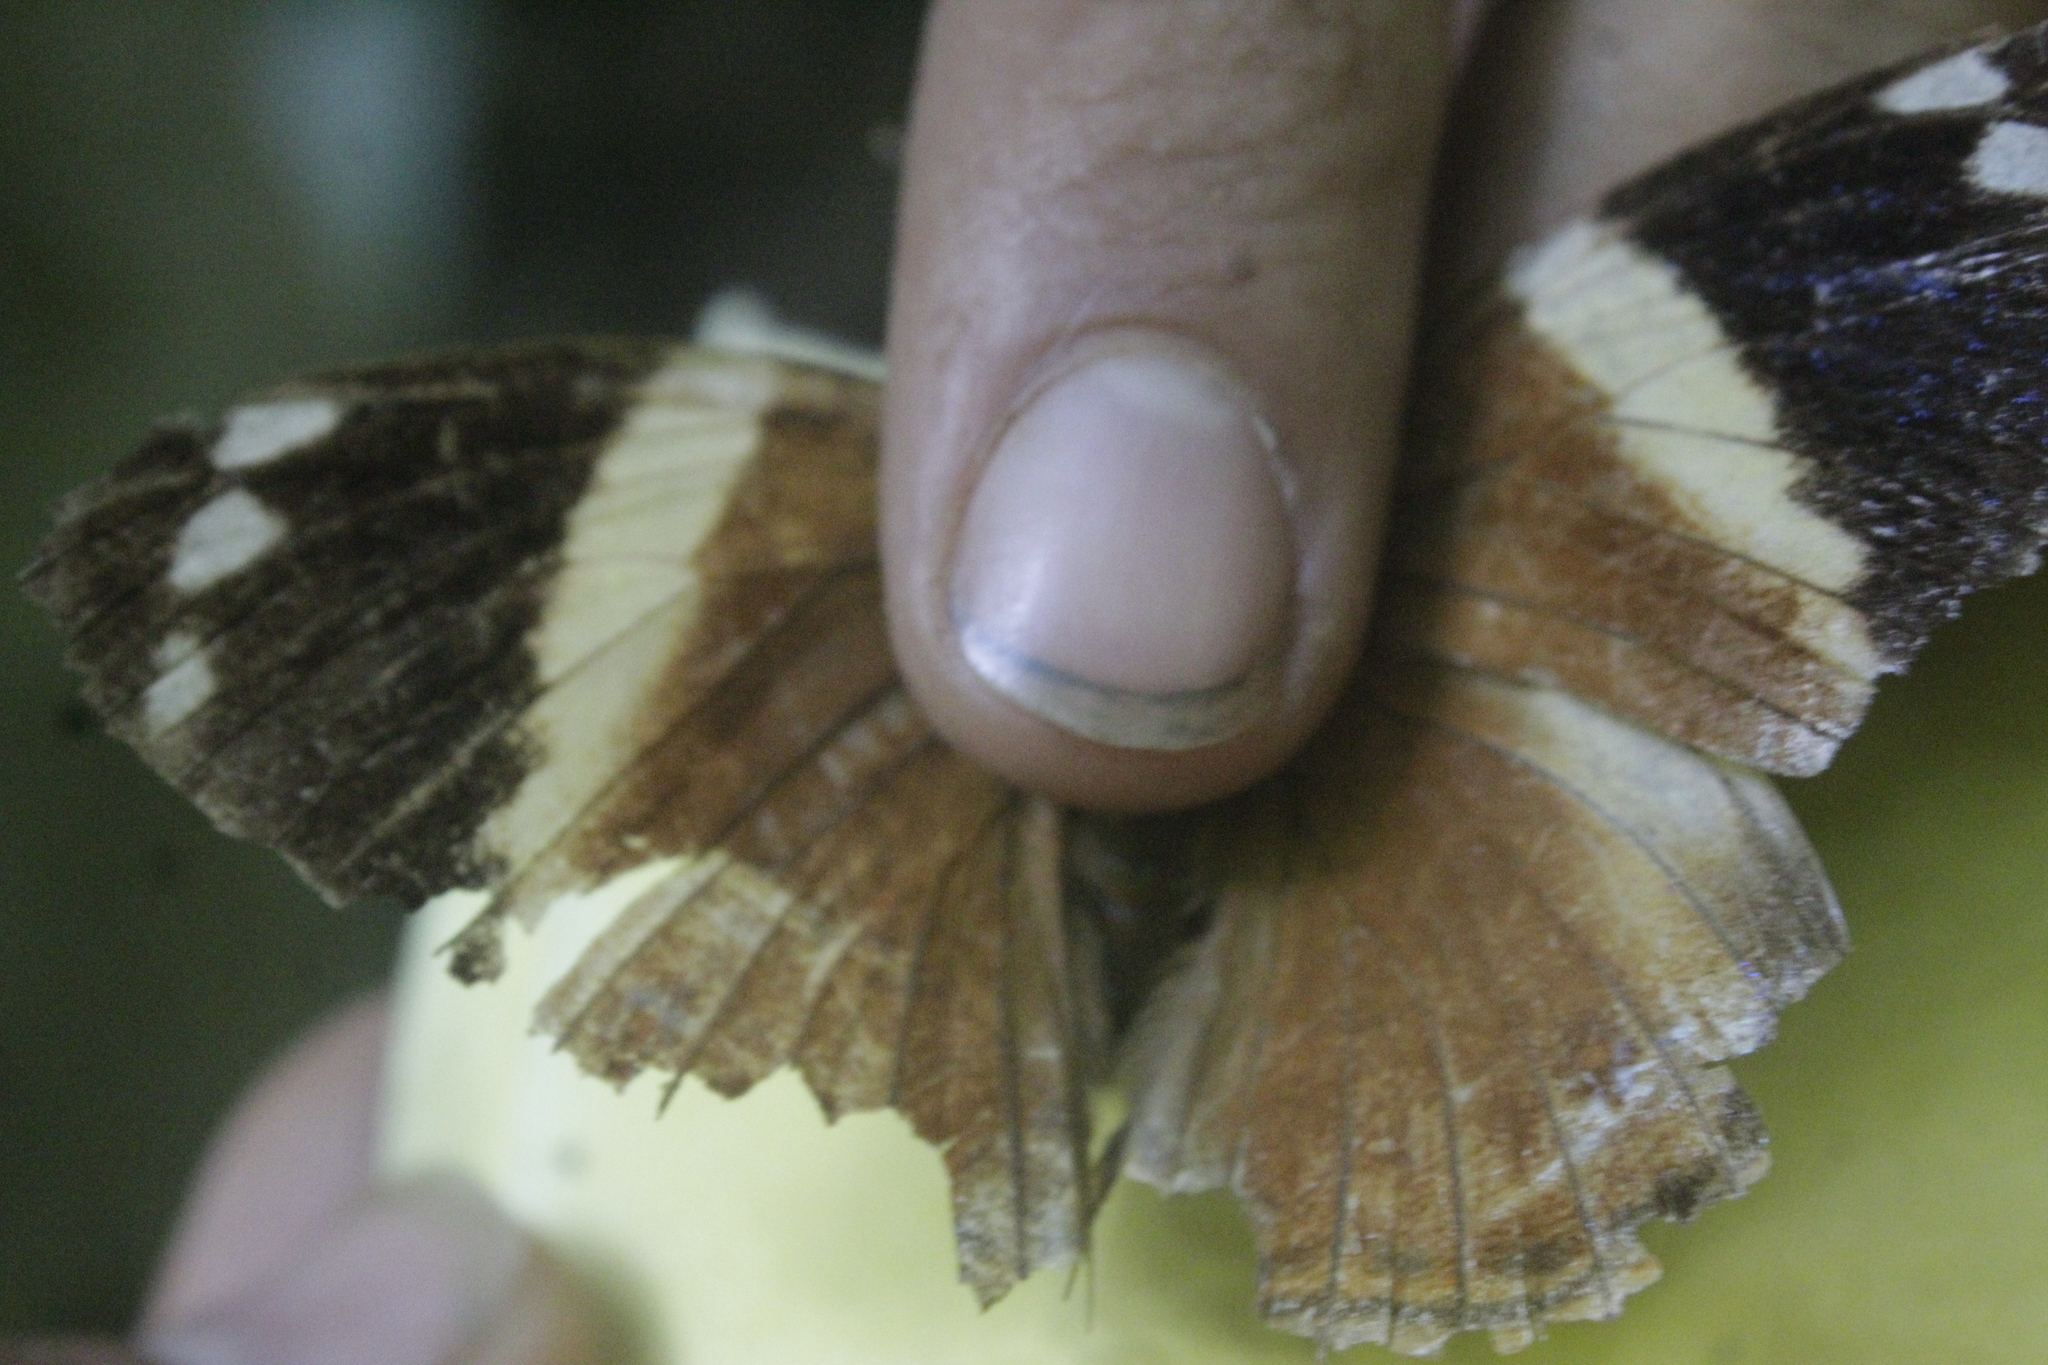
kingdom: Animalia
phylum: Arthropoda
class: Insecta
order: Lepidoptera
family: Nymphalidae
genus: Smyrna
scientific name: Smyrna blomfildia
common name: Blomfild's beauty
